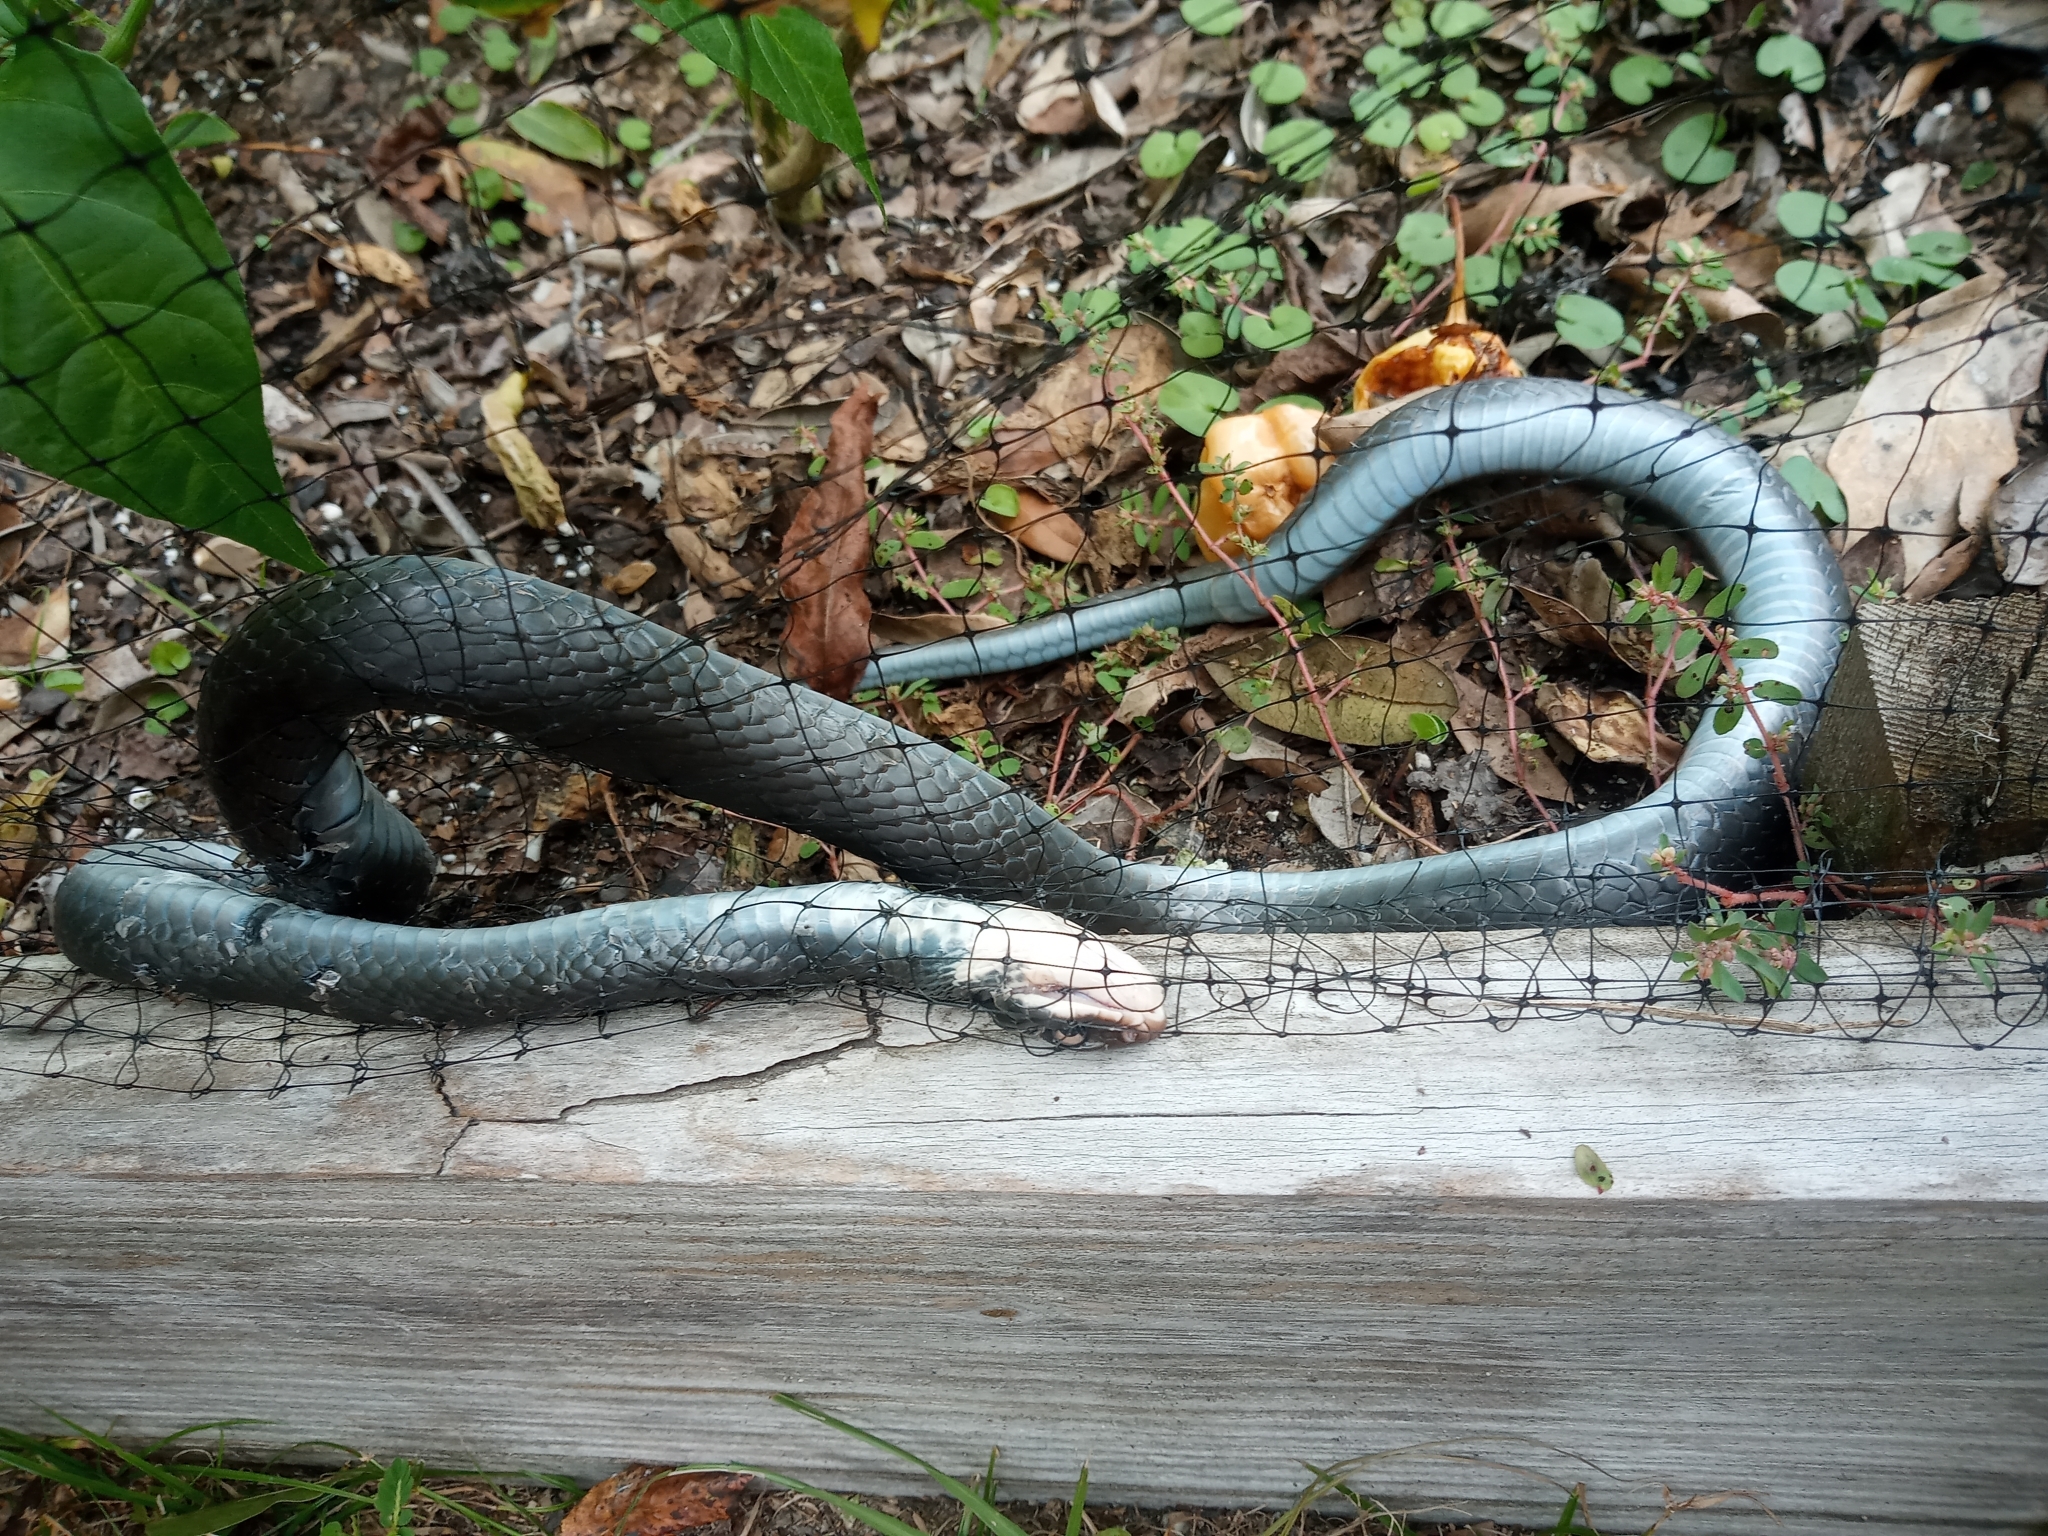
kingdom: Animalia
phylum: Chordata
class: Squamata
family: Colubridae
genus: Coluber
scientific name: Coluber constrictor
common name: Eastern racer
